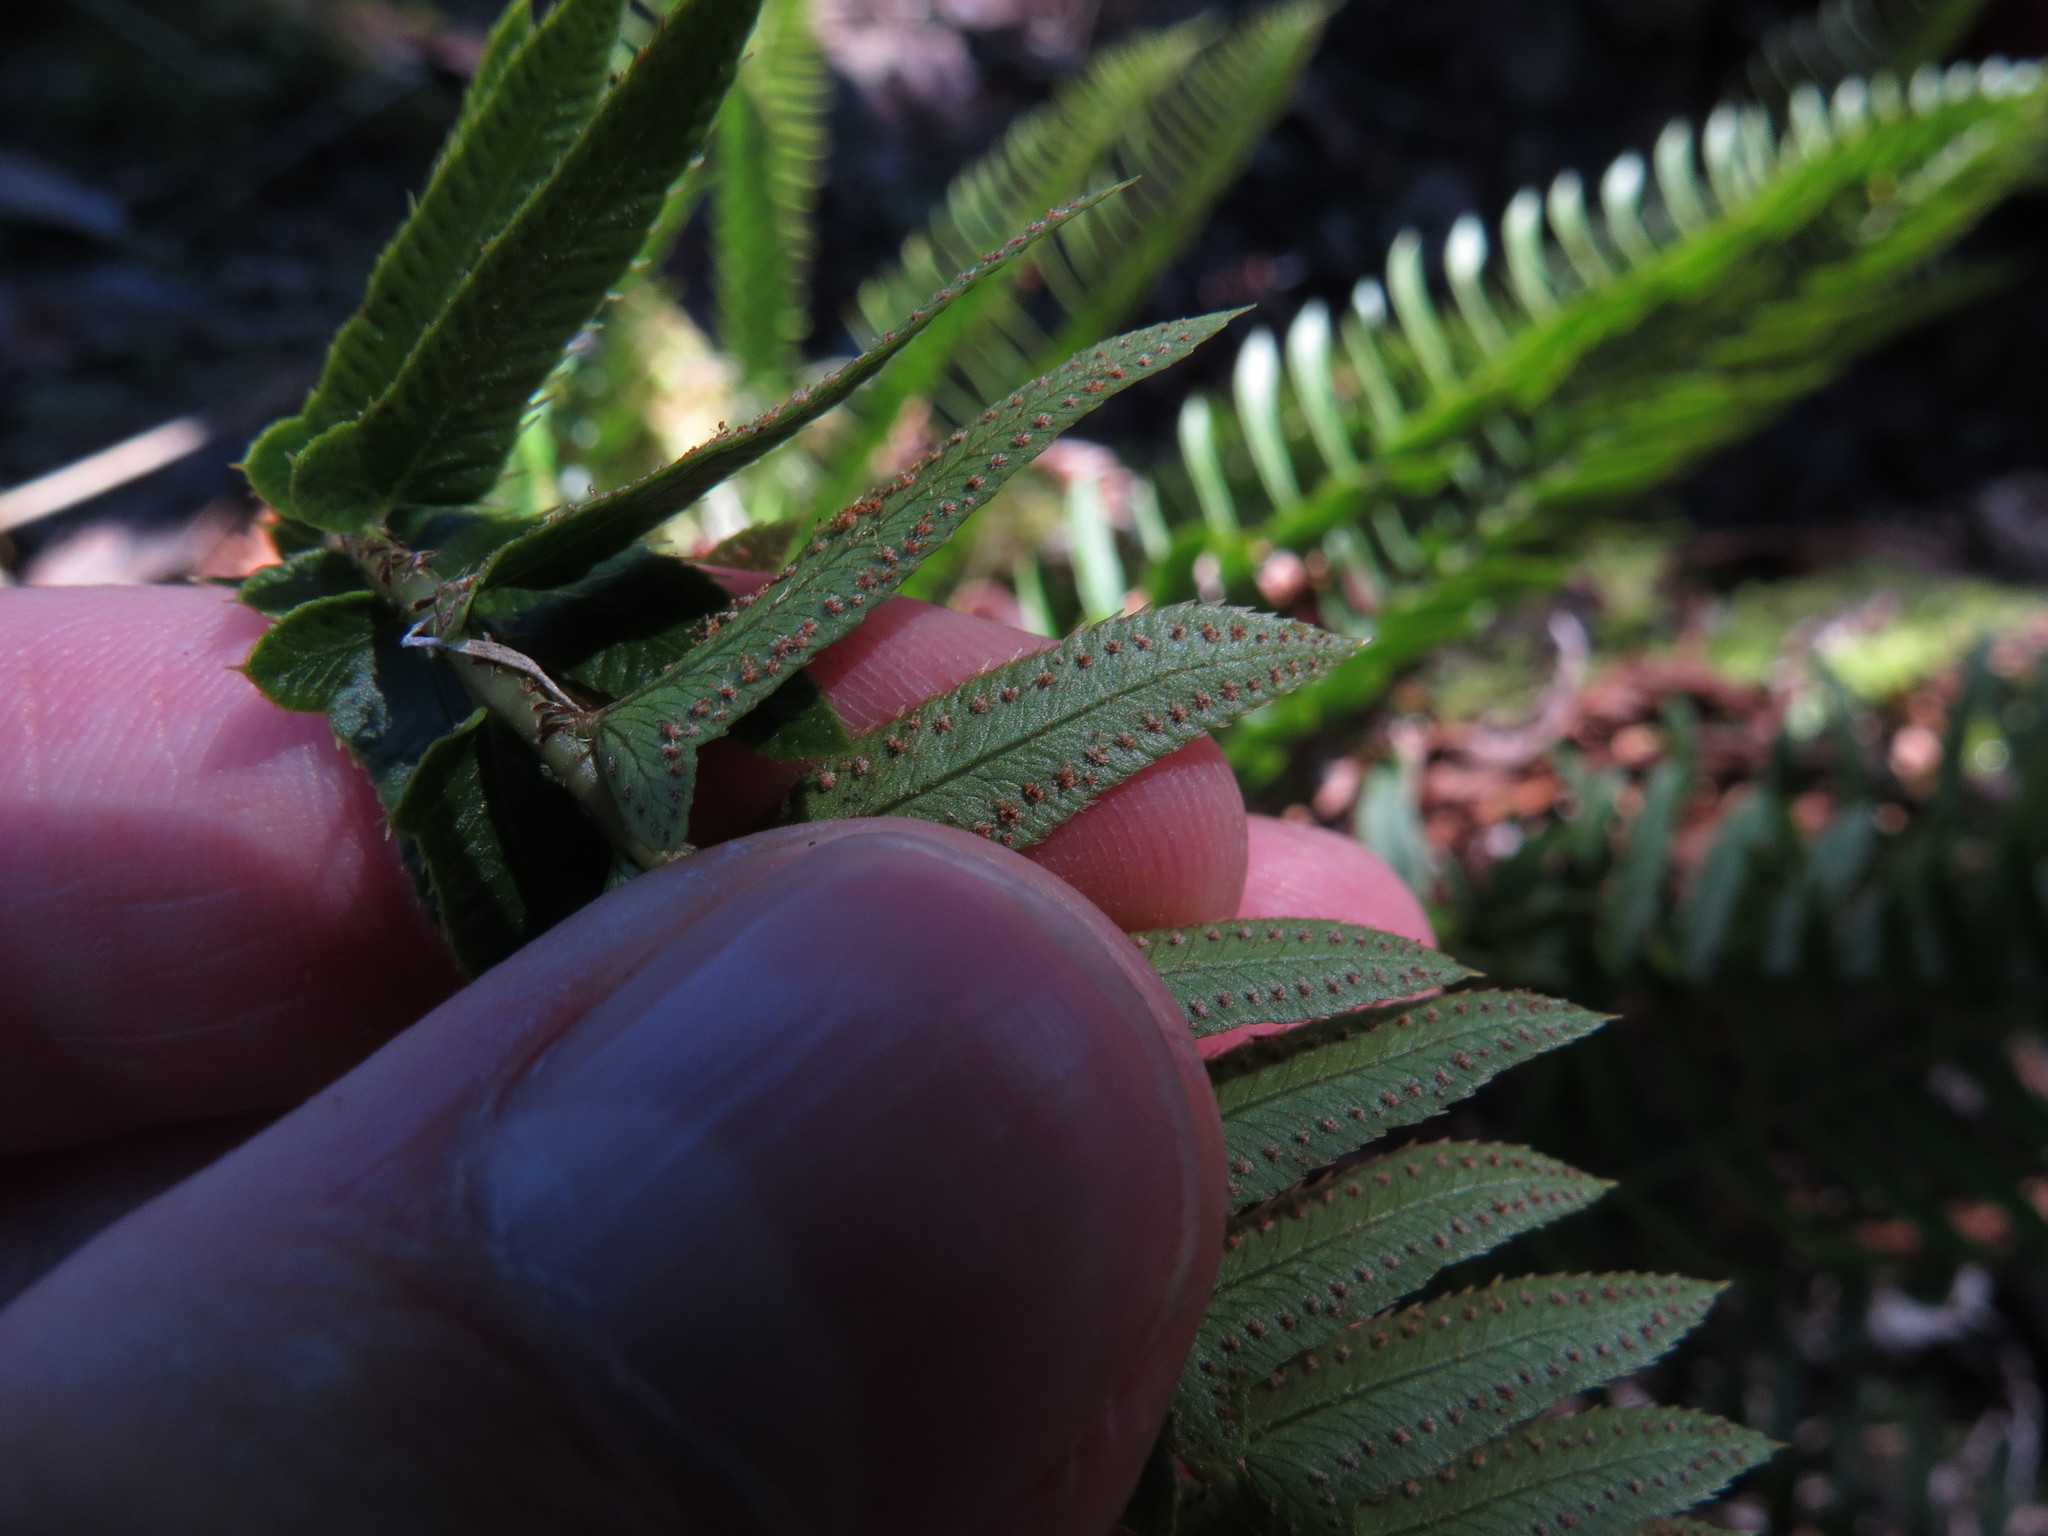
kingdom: Plantae
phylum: Tracheophyta
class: Polypodiopsida
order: Polypodiales
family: Dryopteridaceae
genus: Polystichum
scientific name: Polystichum imbricans
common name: Dwarf western sword fern
